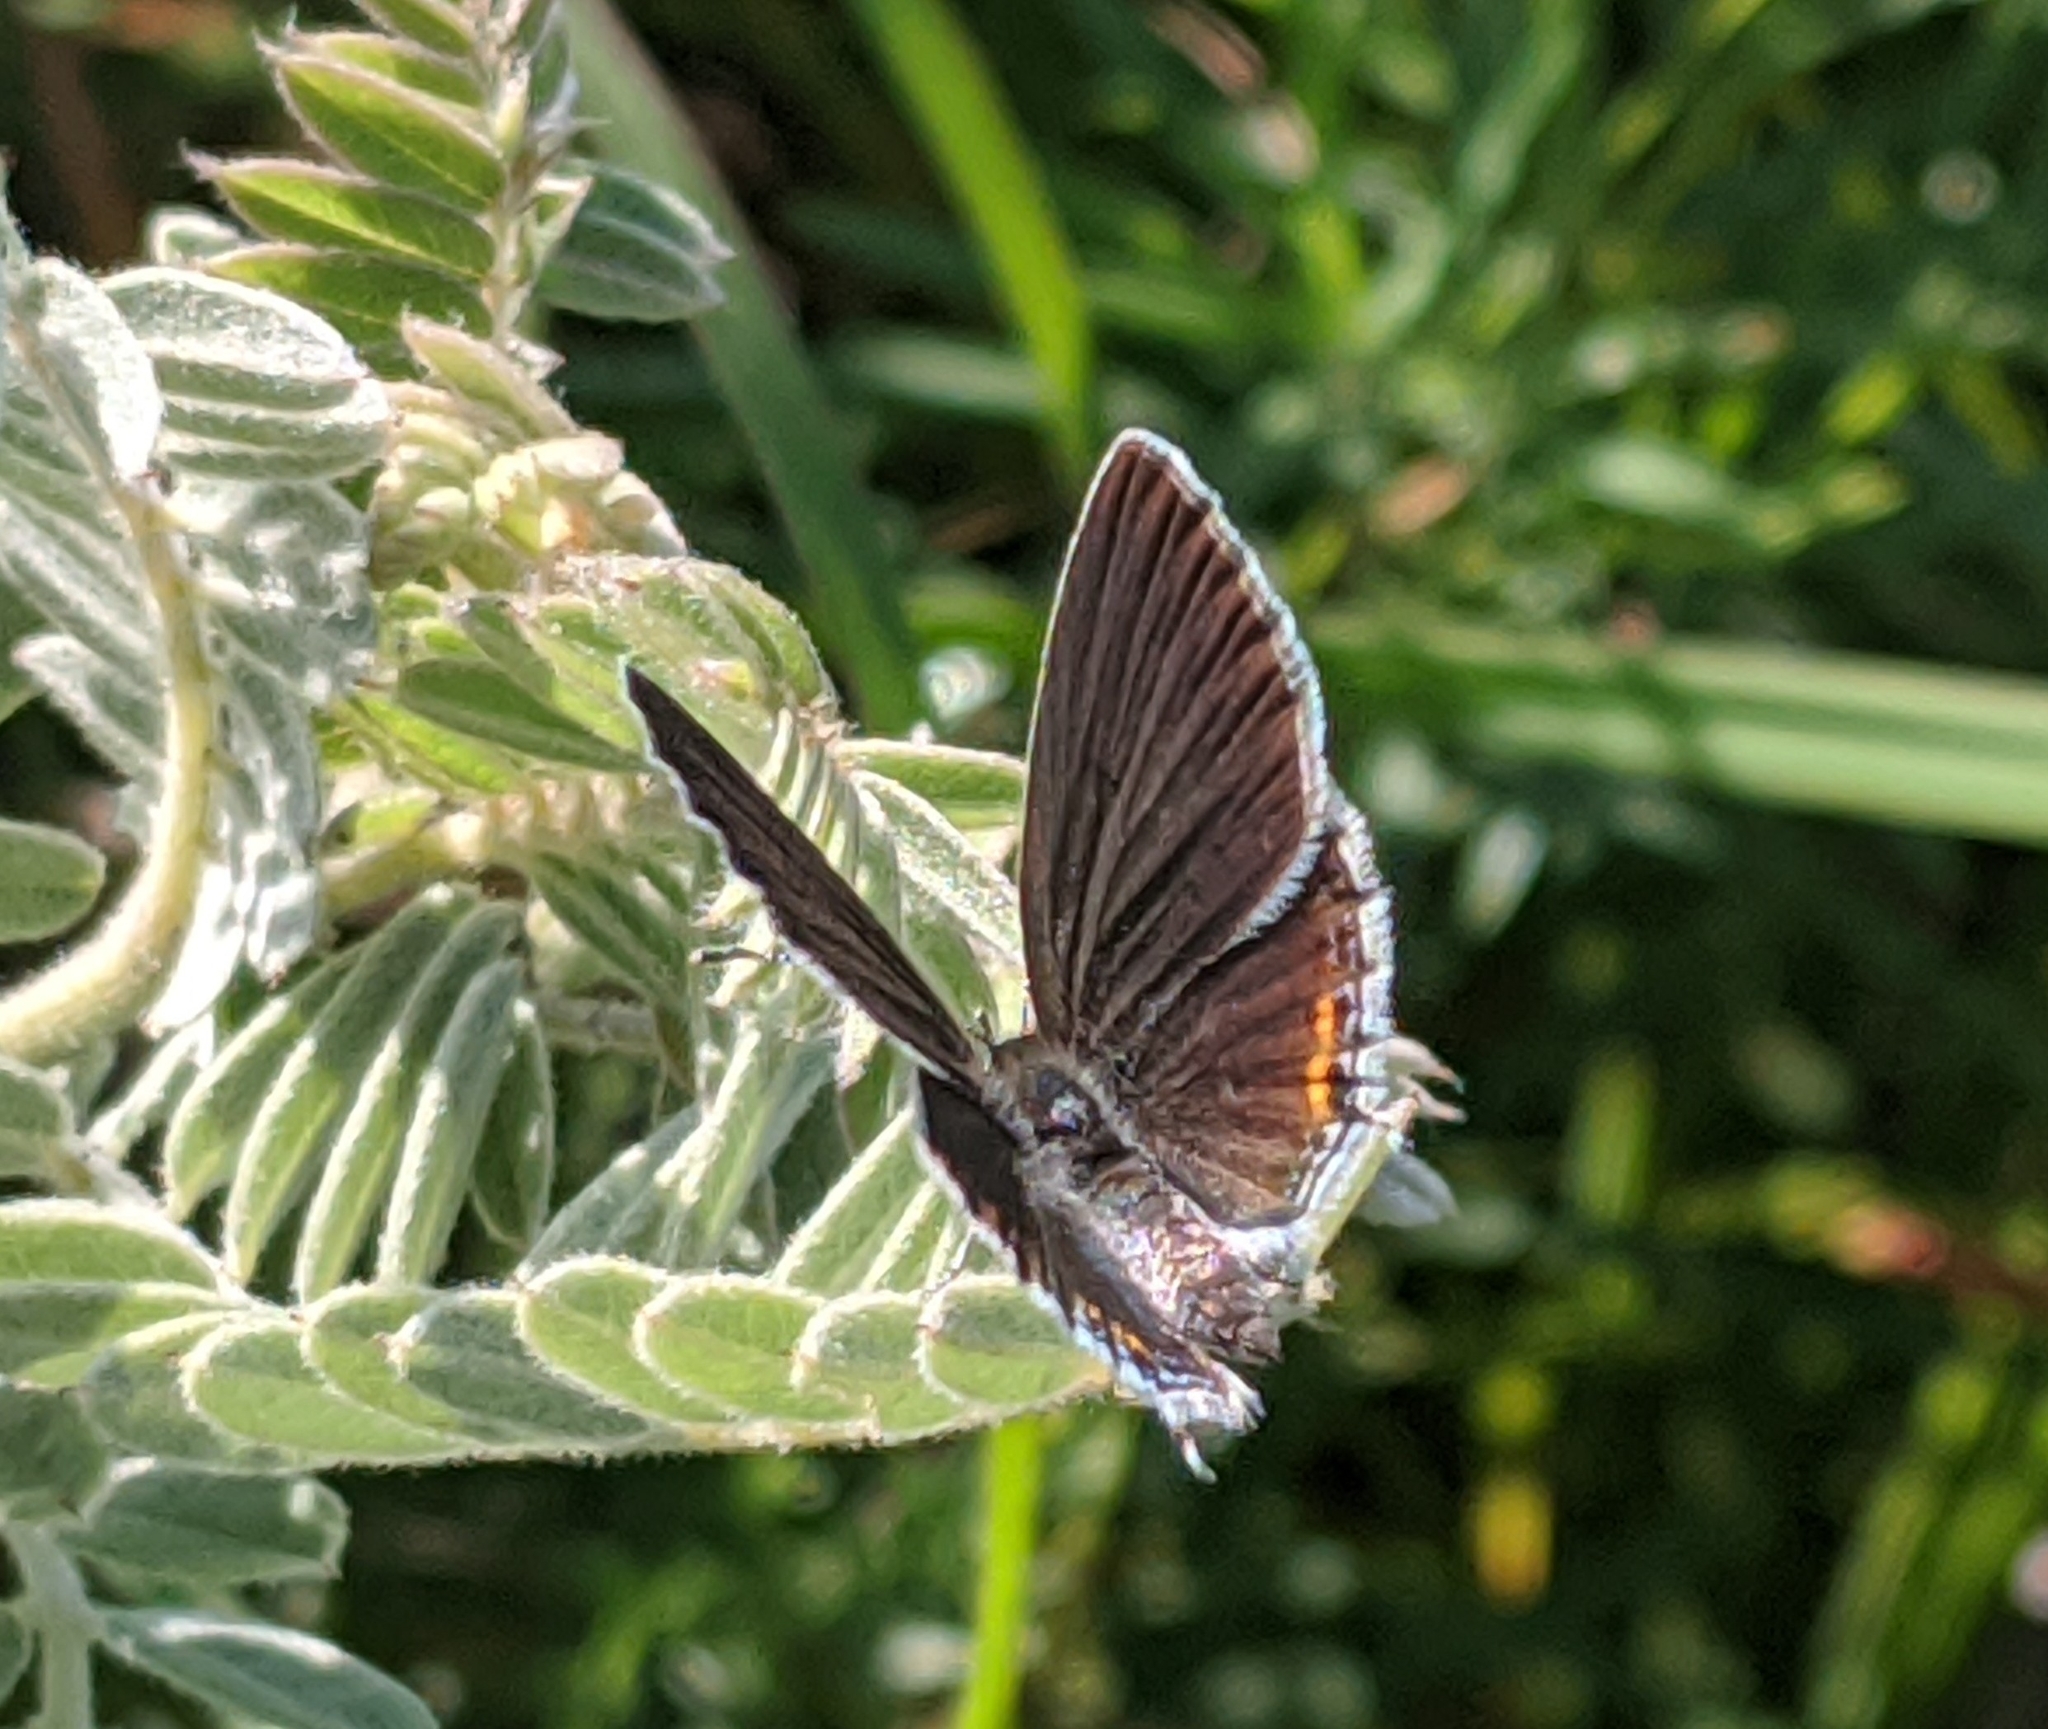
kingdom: Animalia
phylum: Arthropoda
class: Insecta
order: Lepidoptera
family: Lycaenidae
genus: Elkalyce
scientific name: Elkalyce comyntas
